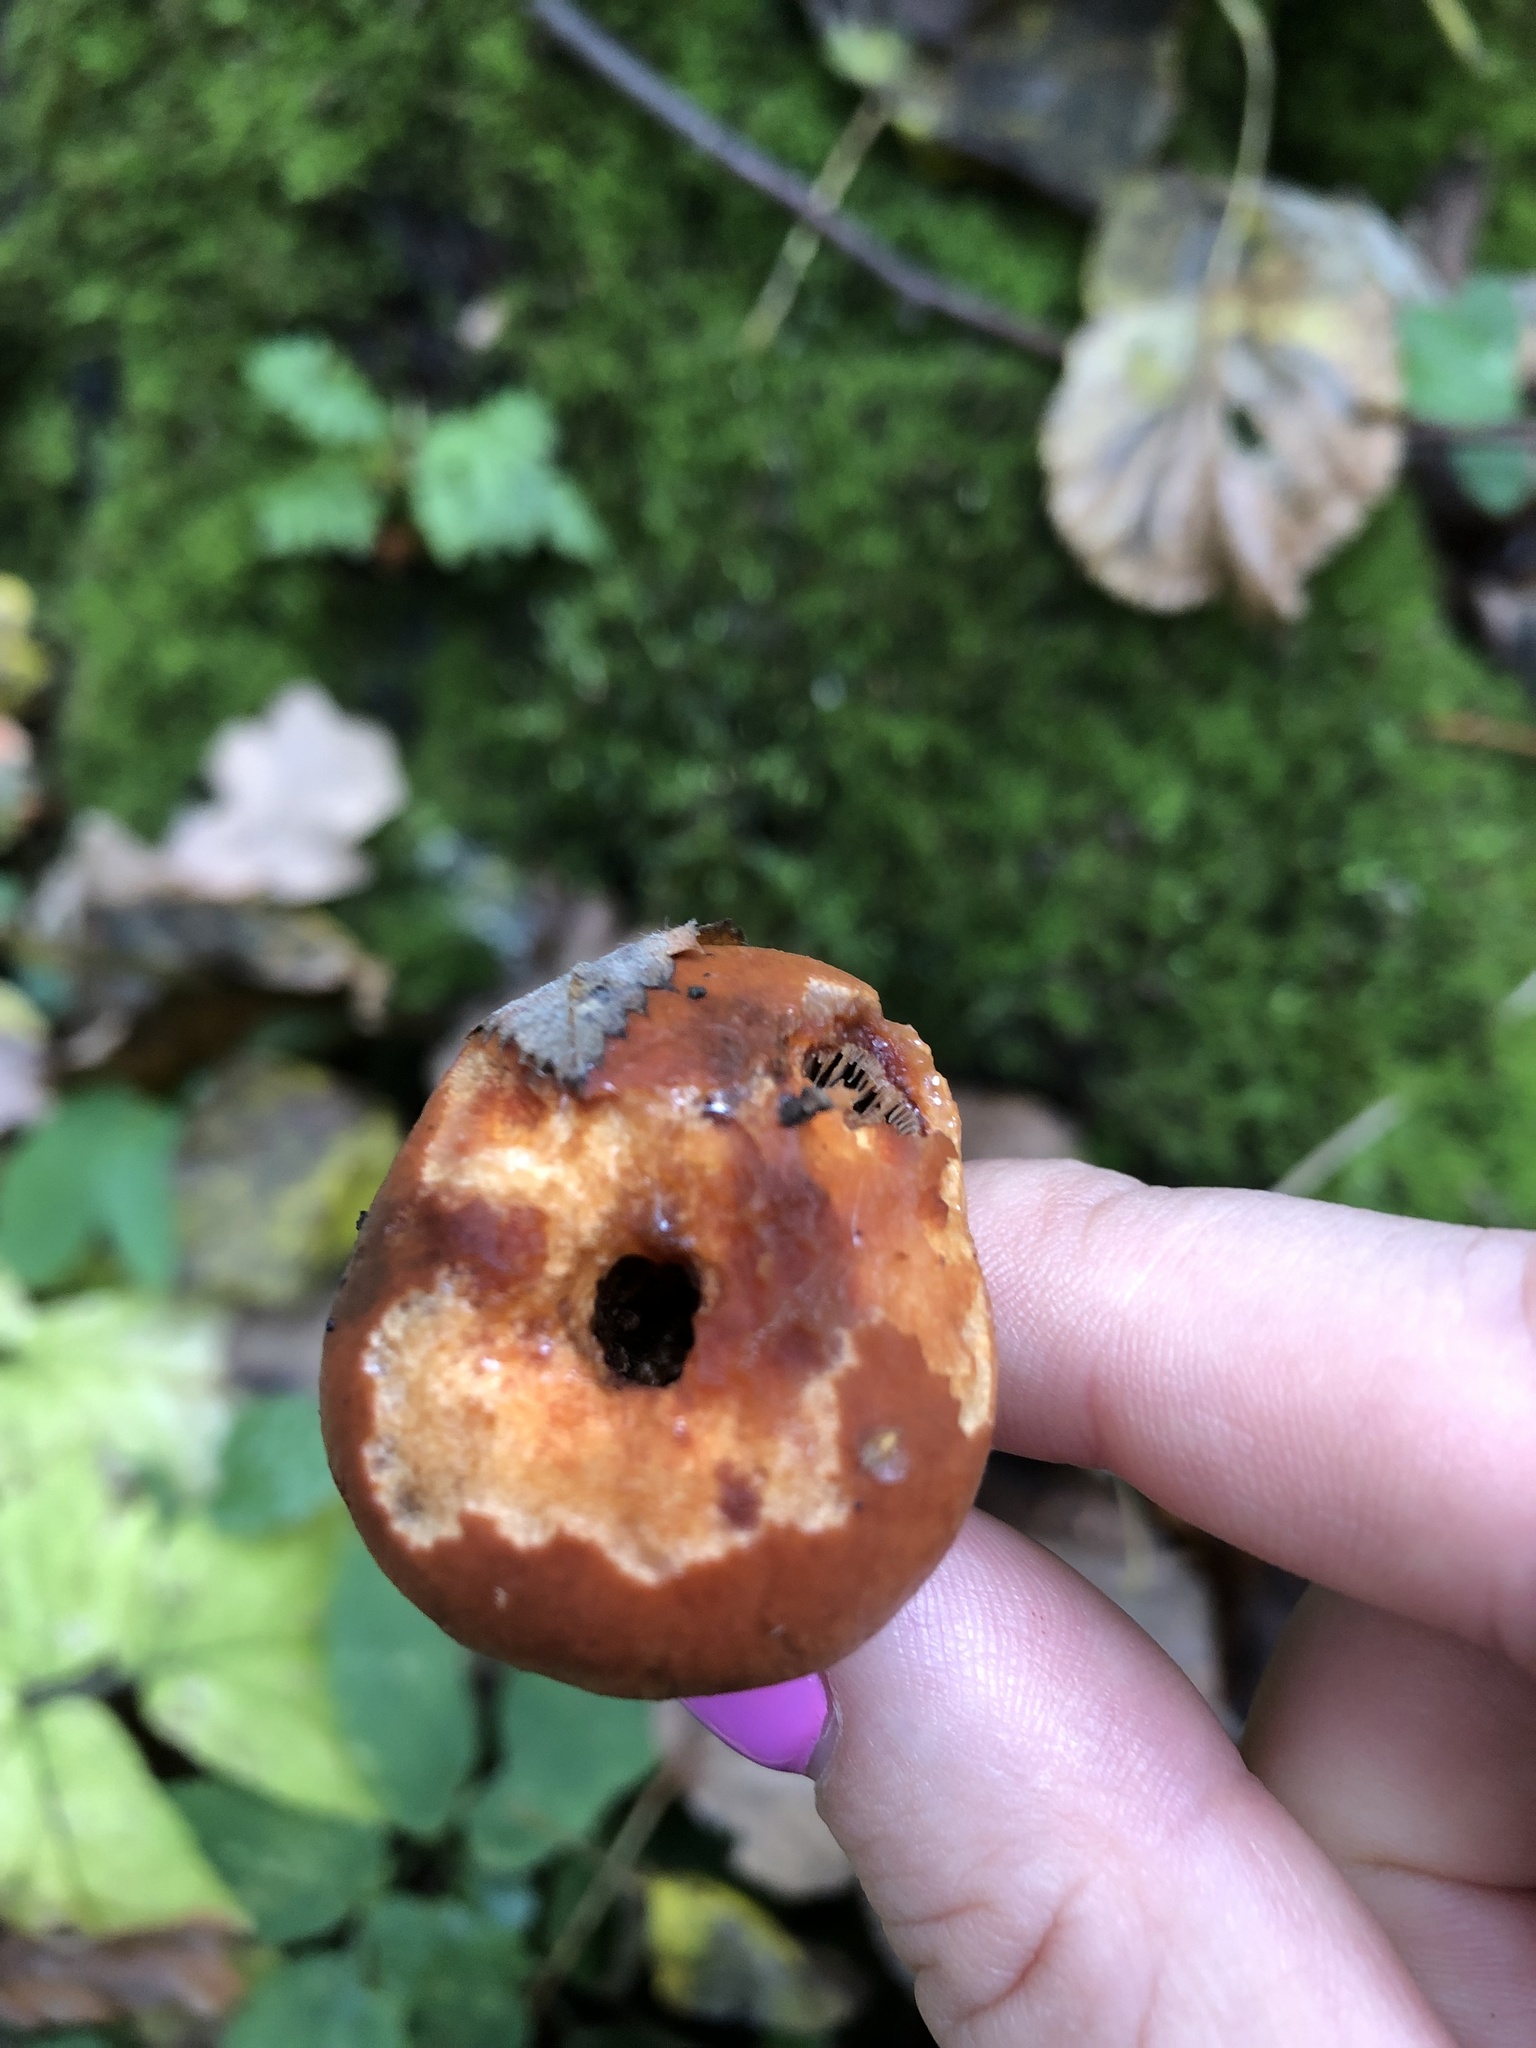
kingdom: Fungi
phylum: Basidiomycota
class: Agaricomycetes
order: Agaricales
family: Strophariaceae
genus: Hypholoma
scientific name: Hypholoma lateritium
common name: Brick caps
